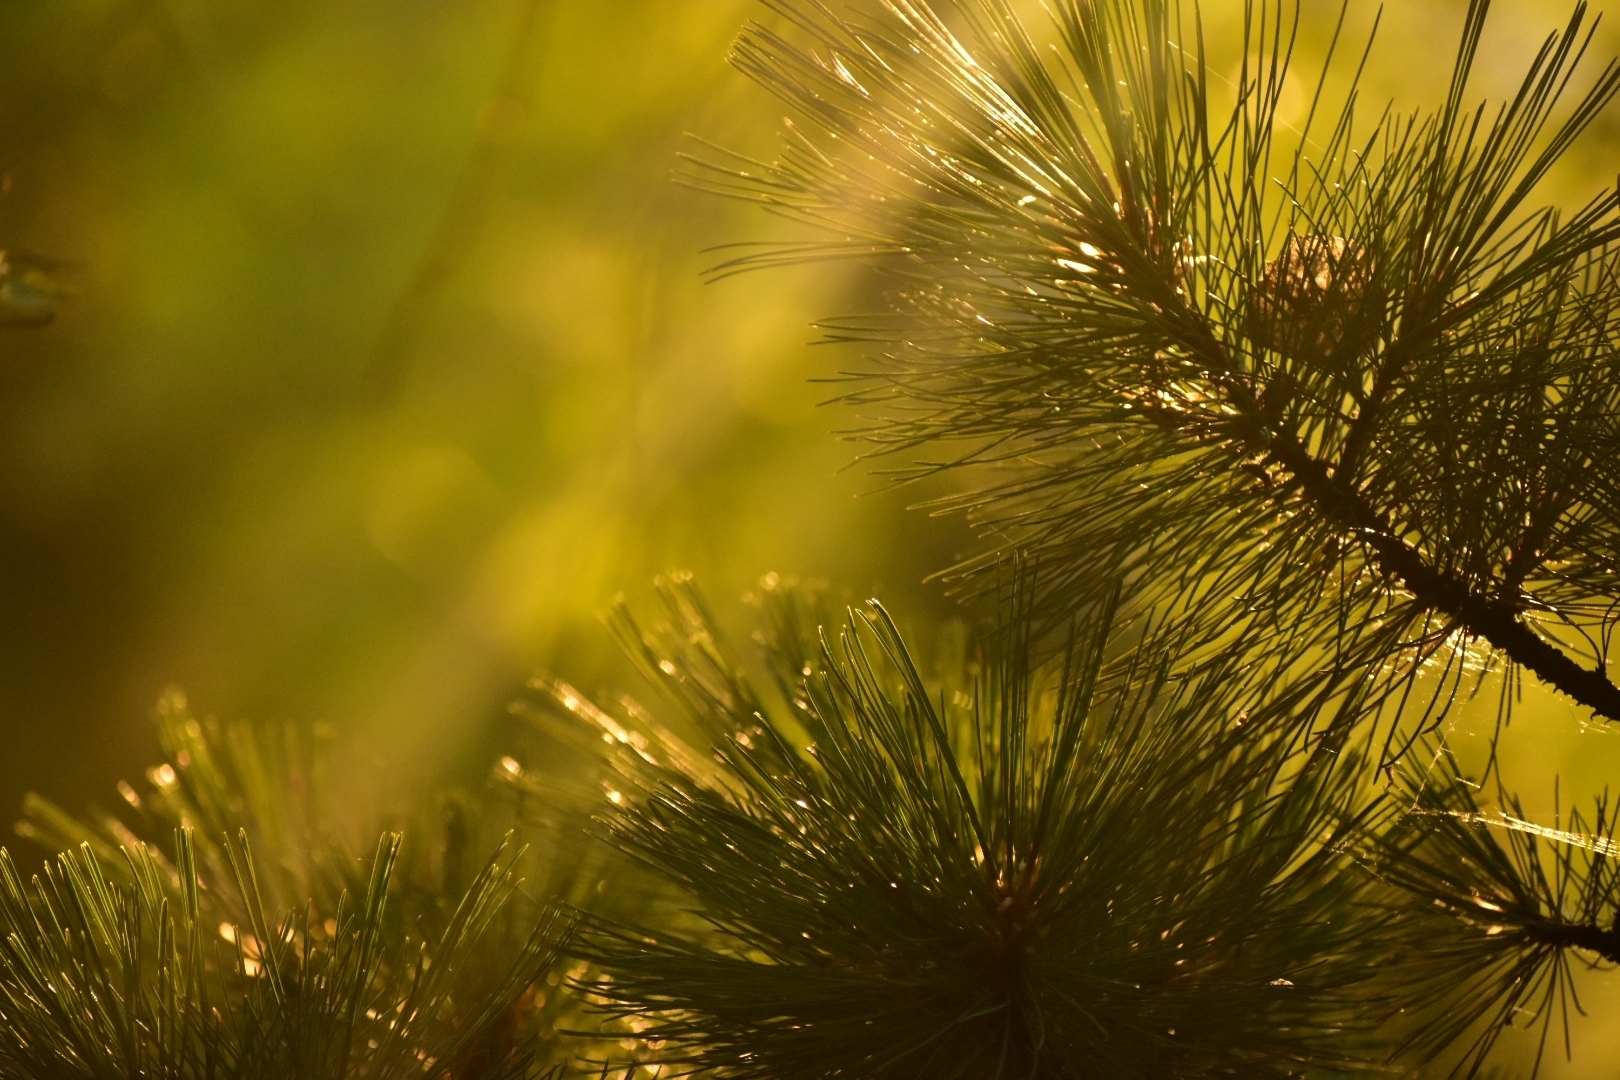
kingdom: Plantae
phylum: Tracheophyta
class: Pinopsida
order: Pinales
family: Pinaceae
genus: Pinus
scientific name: Pinus pumila
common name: Dwarf siberian pine
